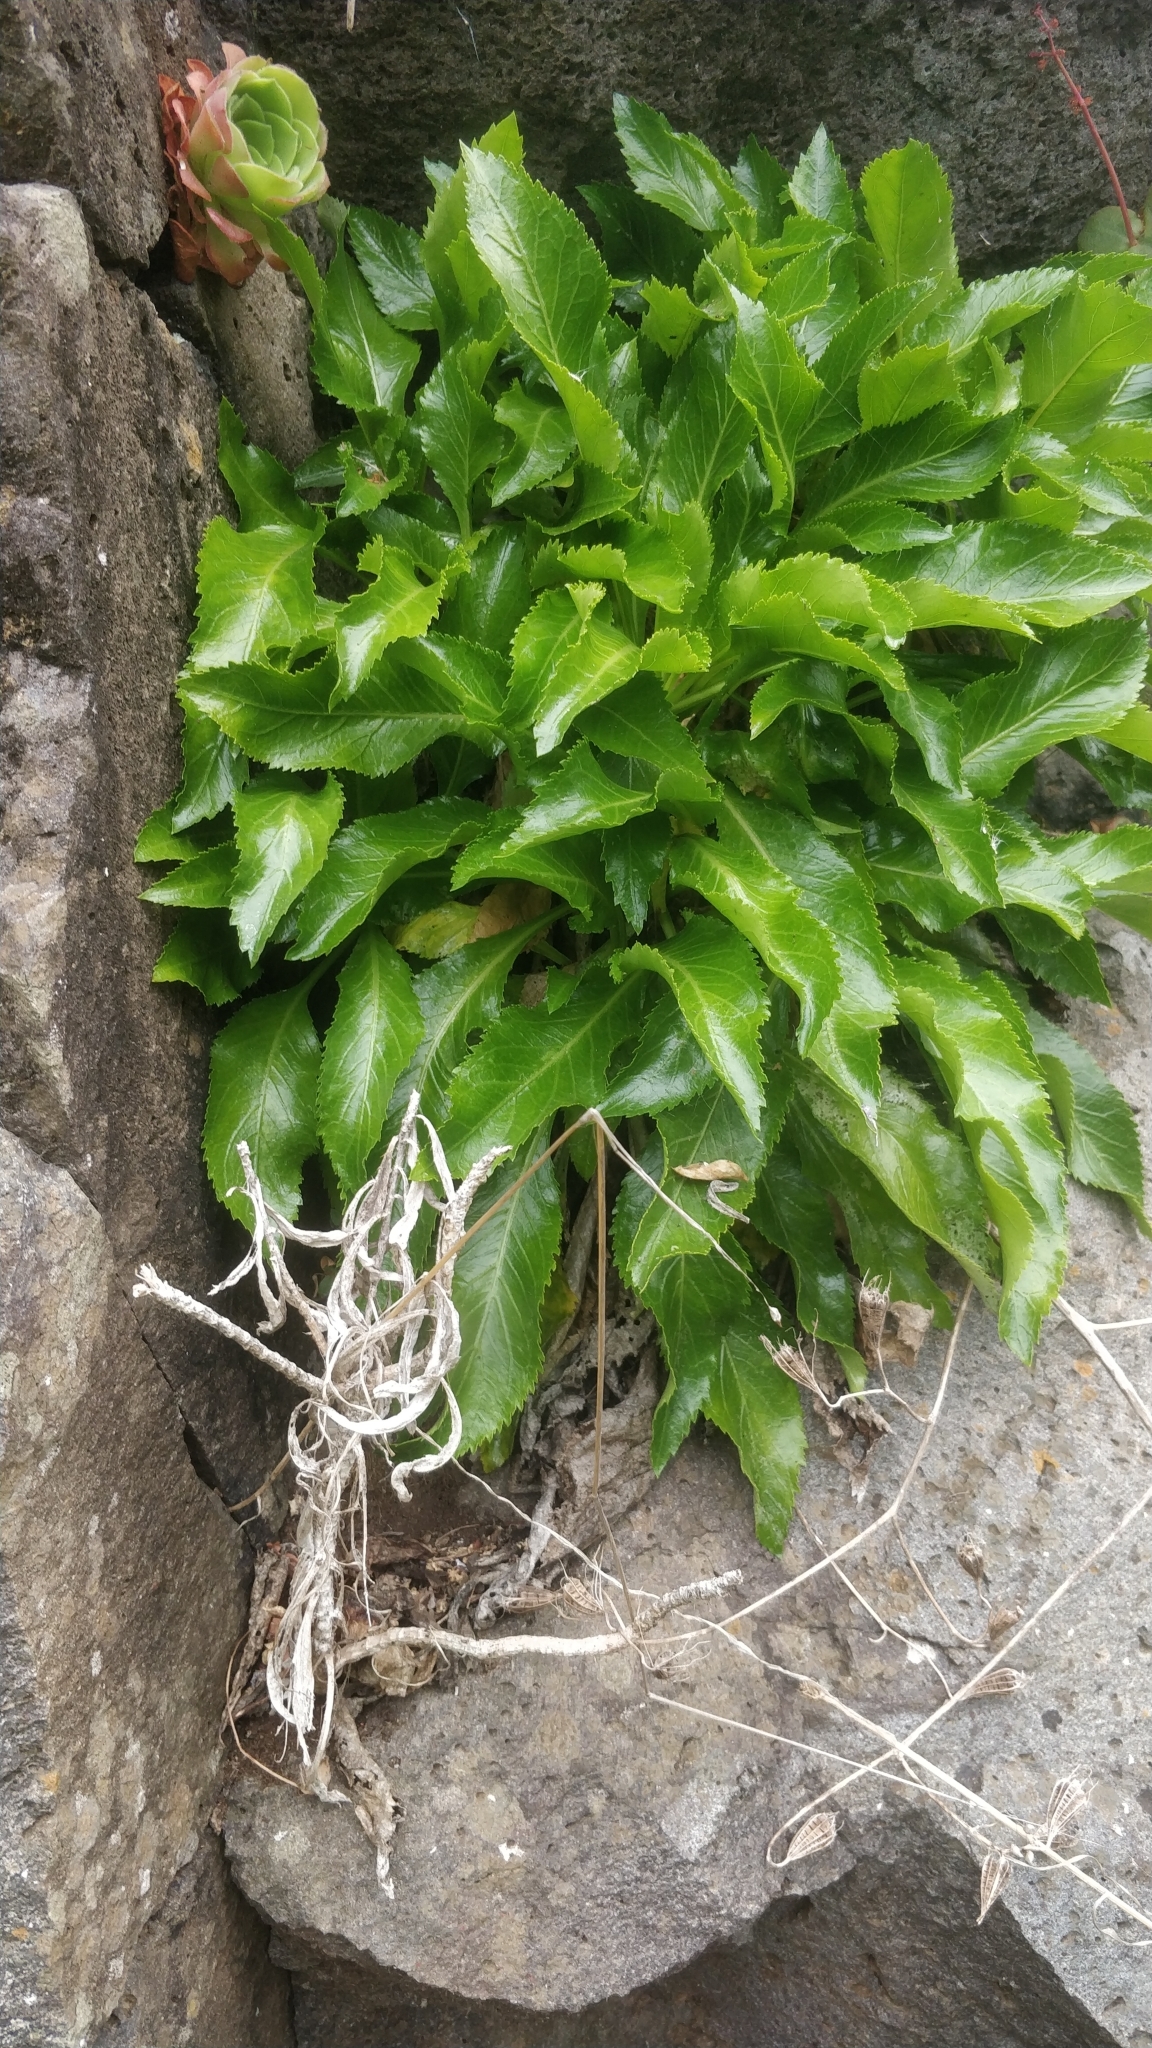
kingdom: Plantae
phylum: Tracheophyta
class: Magnoliopsida
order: Asterales
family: Campanulaceae
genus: Musschia
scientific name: Musschia aurea
